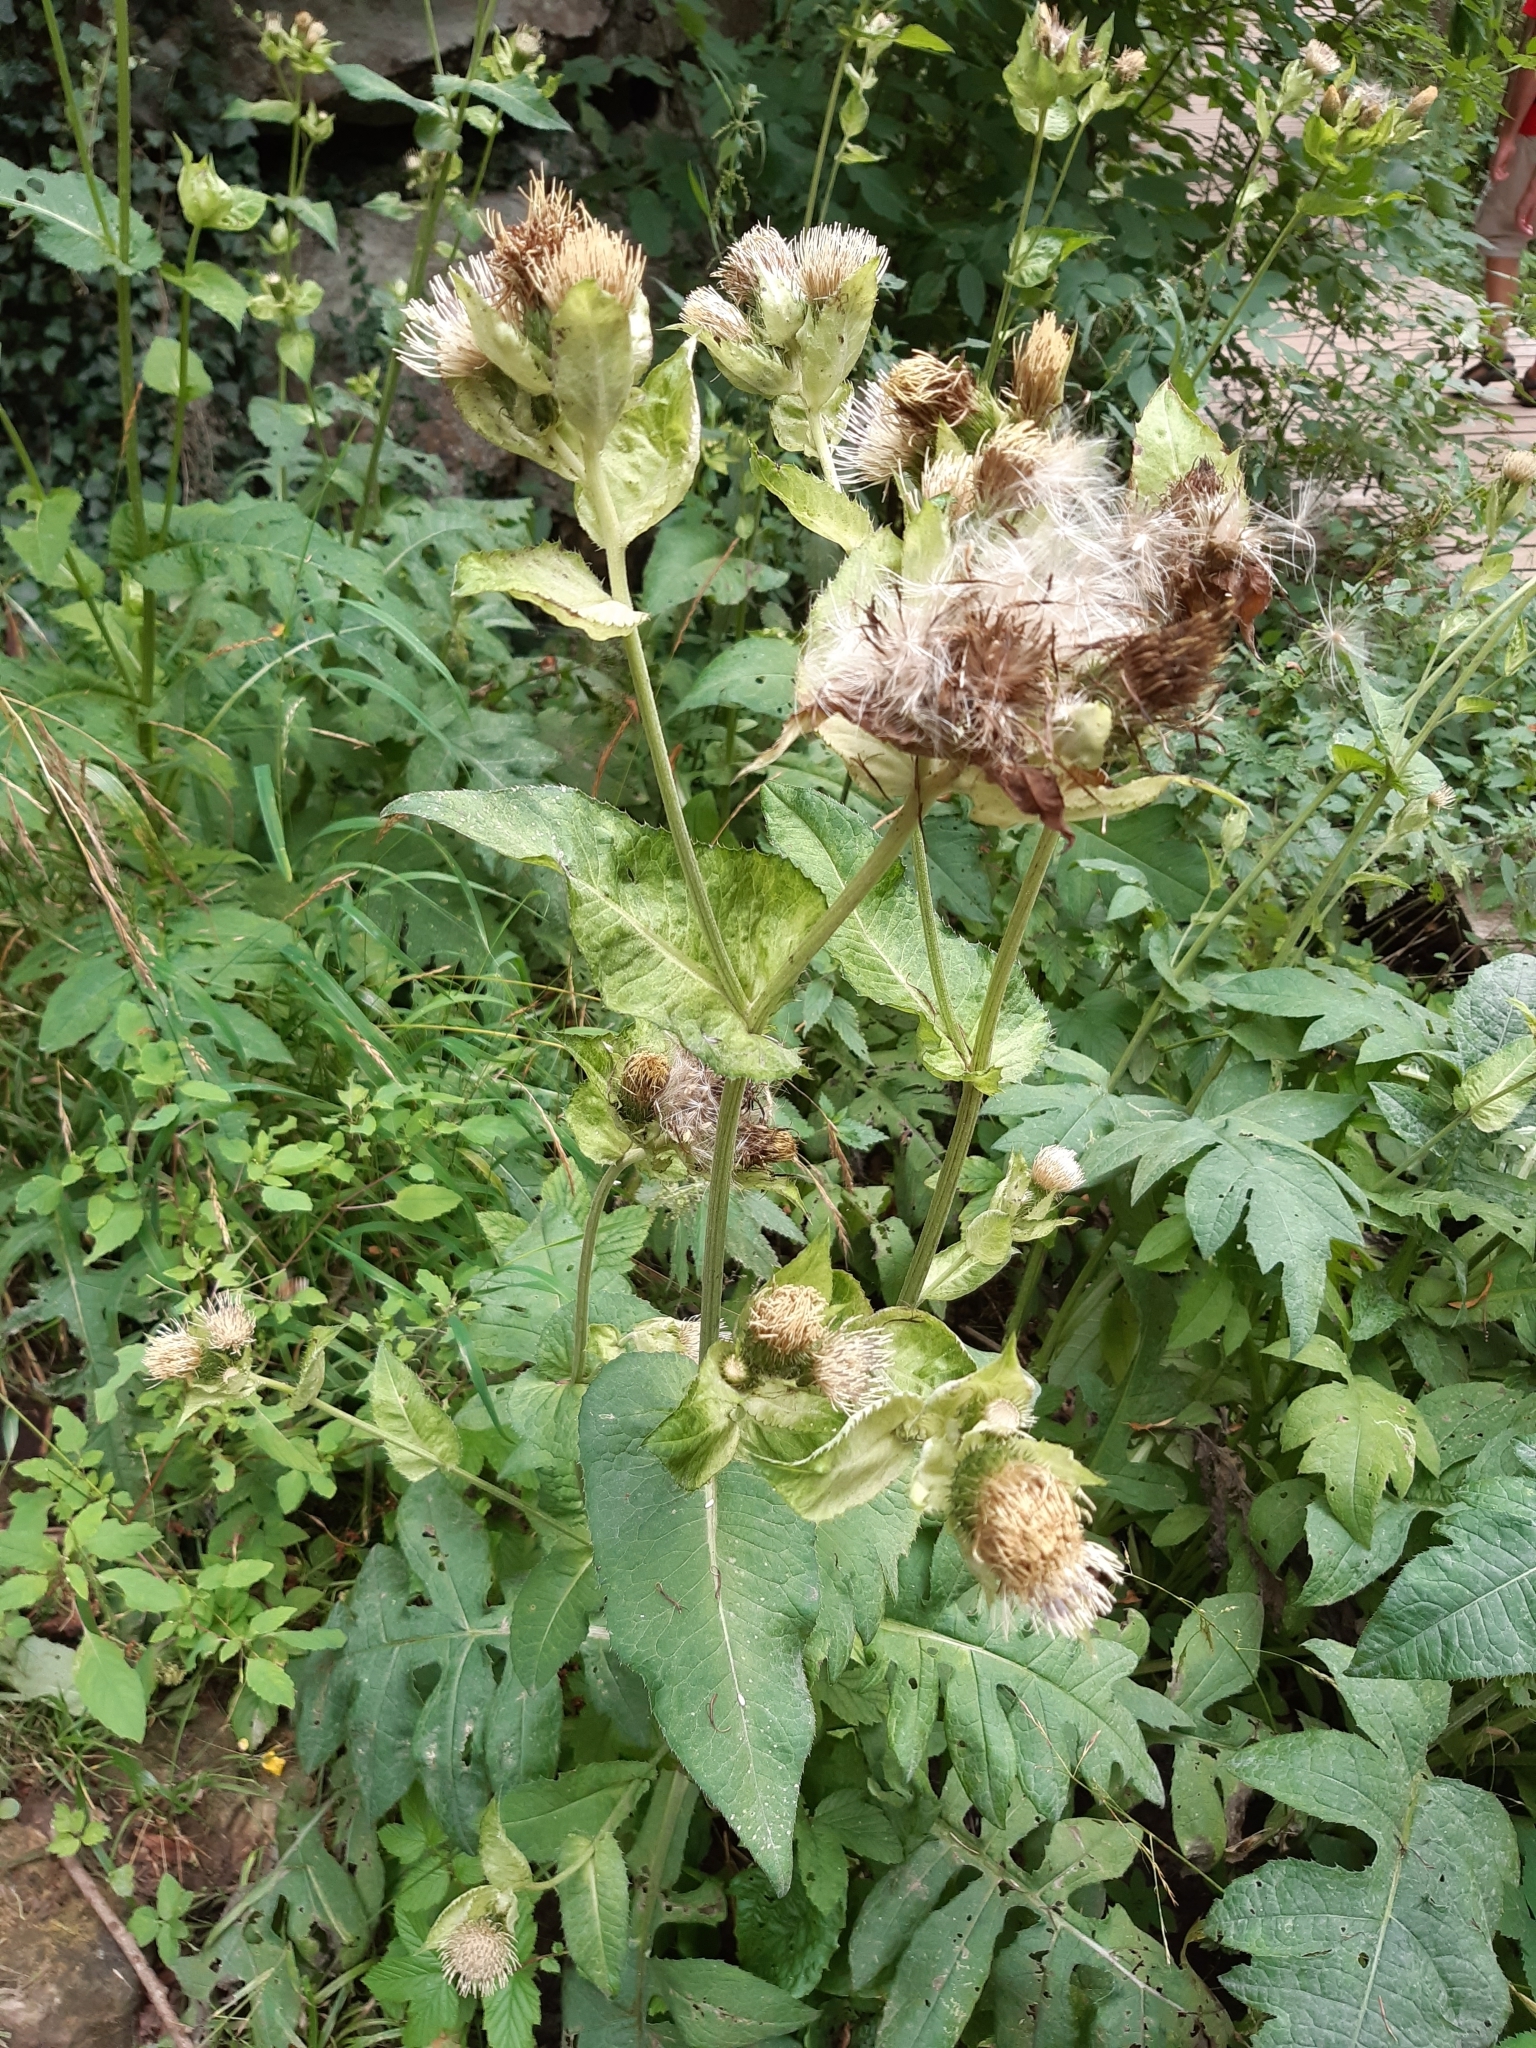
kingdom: Plantae
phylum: Tracheophyta
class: Magnoliopsida
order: Asterales
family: Asteraceae
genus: Cirsium
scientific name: Cirsium oleraceum
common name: Cabbage thistle
